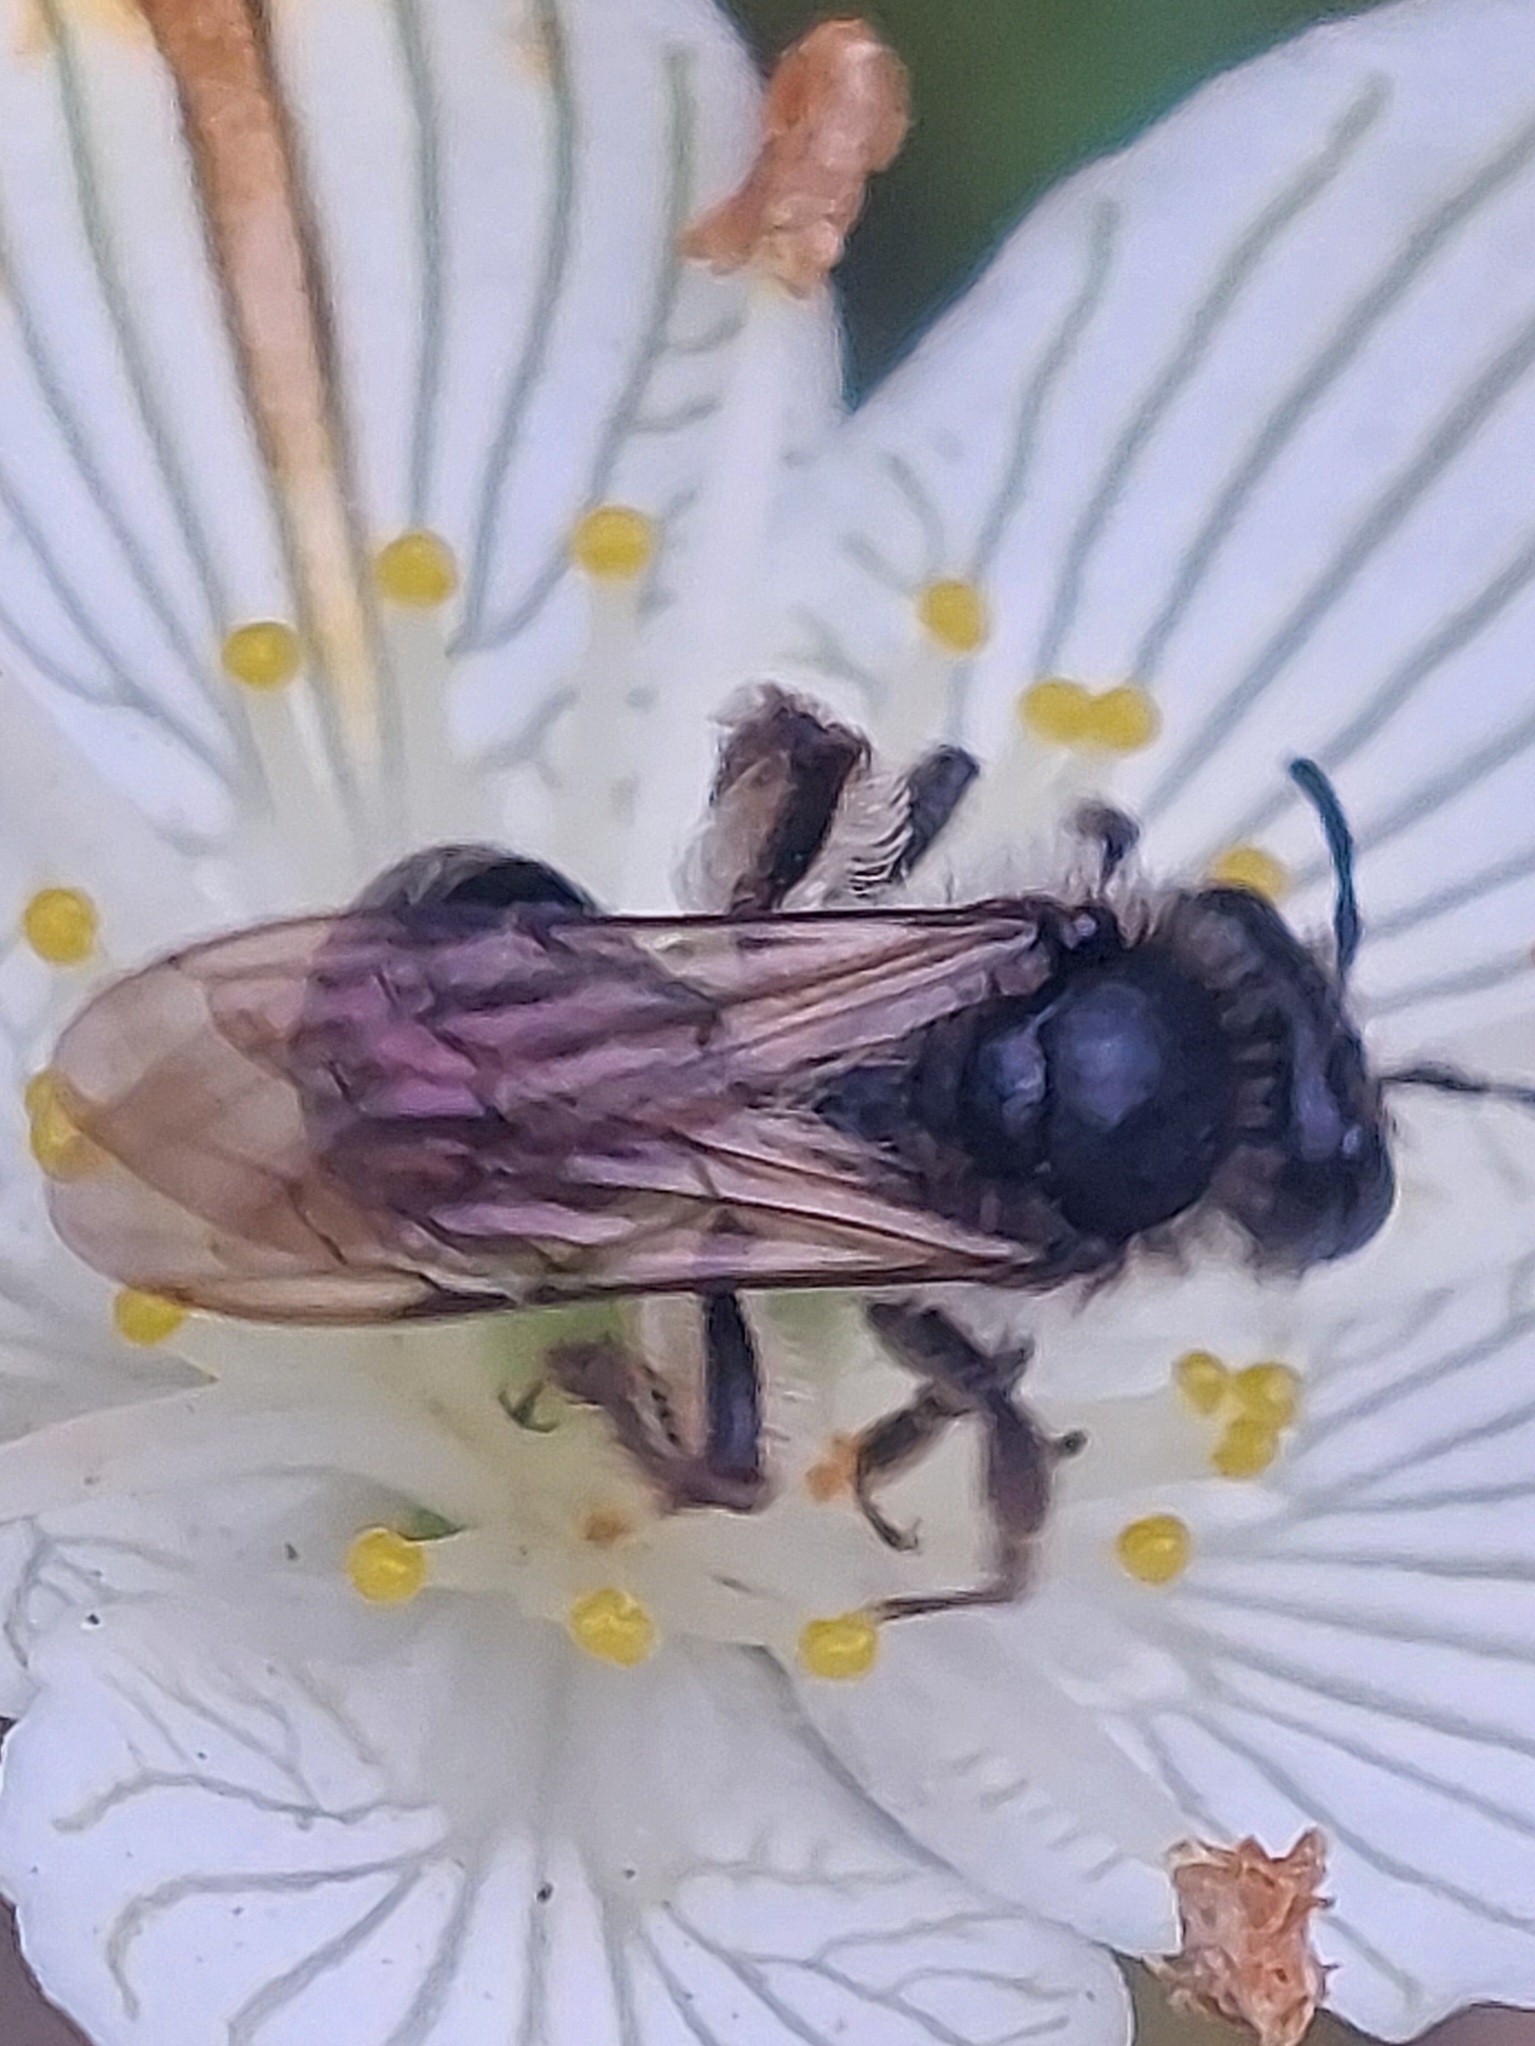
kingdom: Animalia
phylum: Arthropoda
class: Insecta
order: Hymenoptera
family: Andrenidae
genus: Andrena
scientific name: Andrena parnassiae
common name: Parnassia miner
